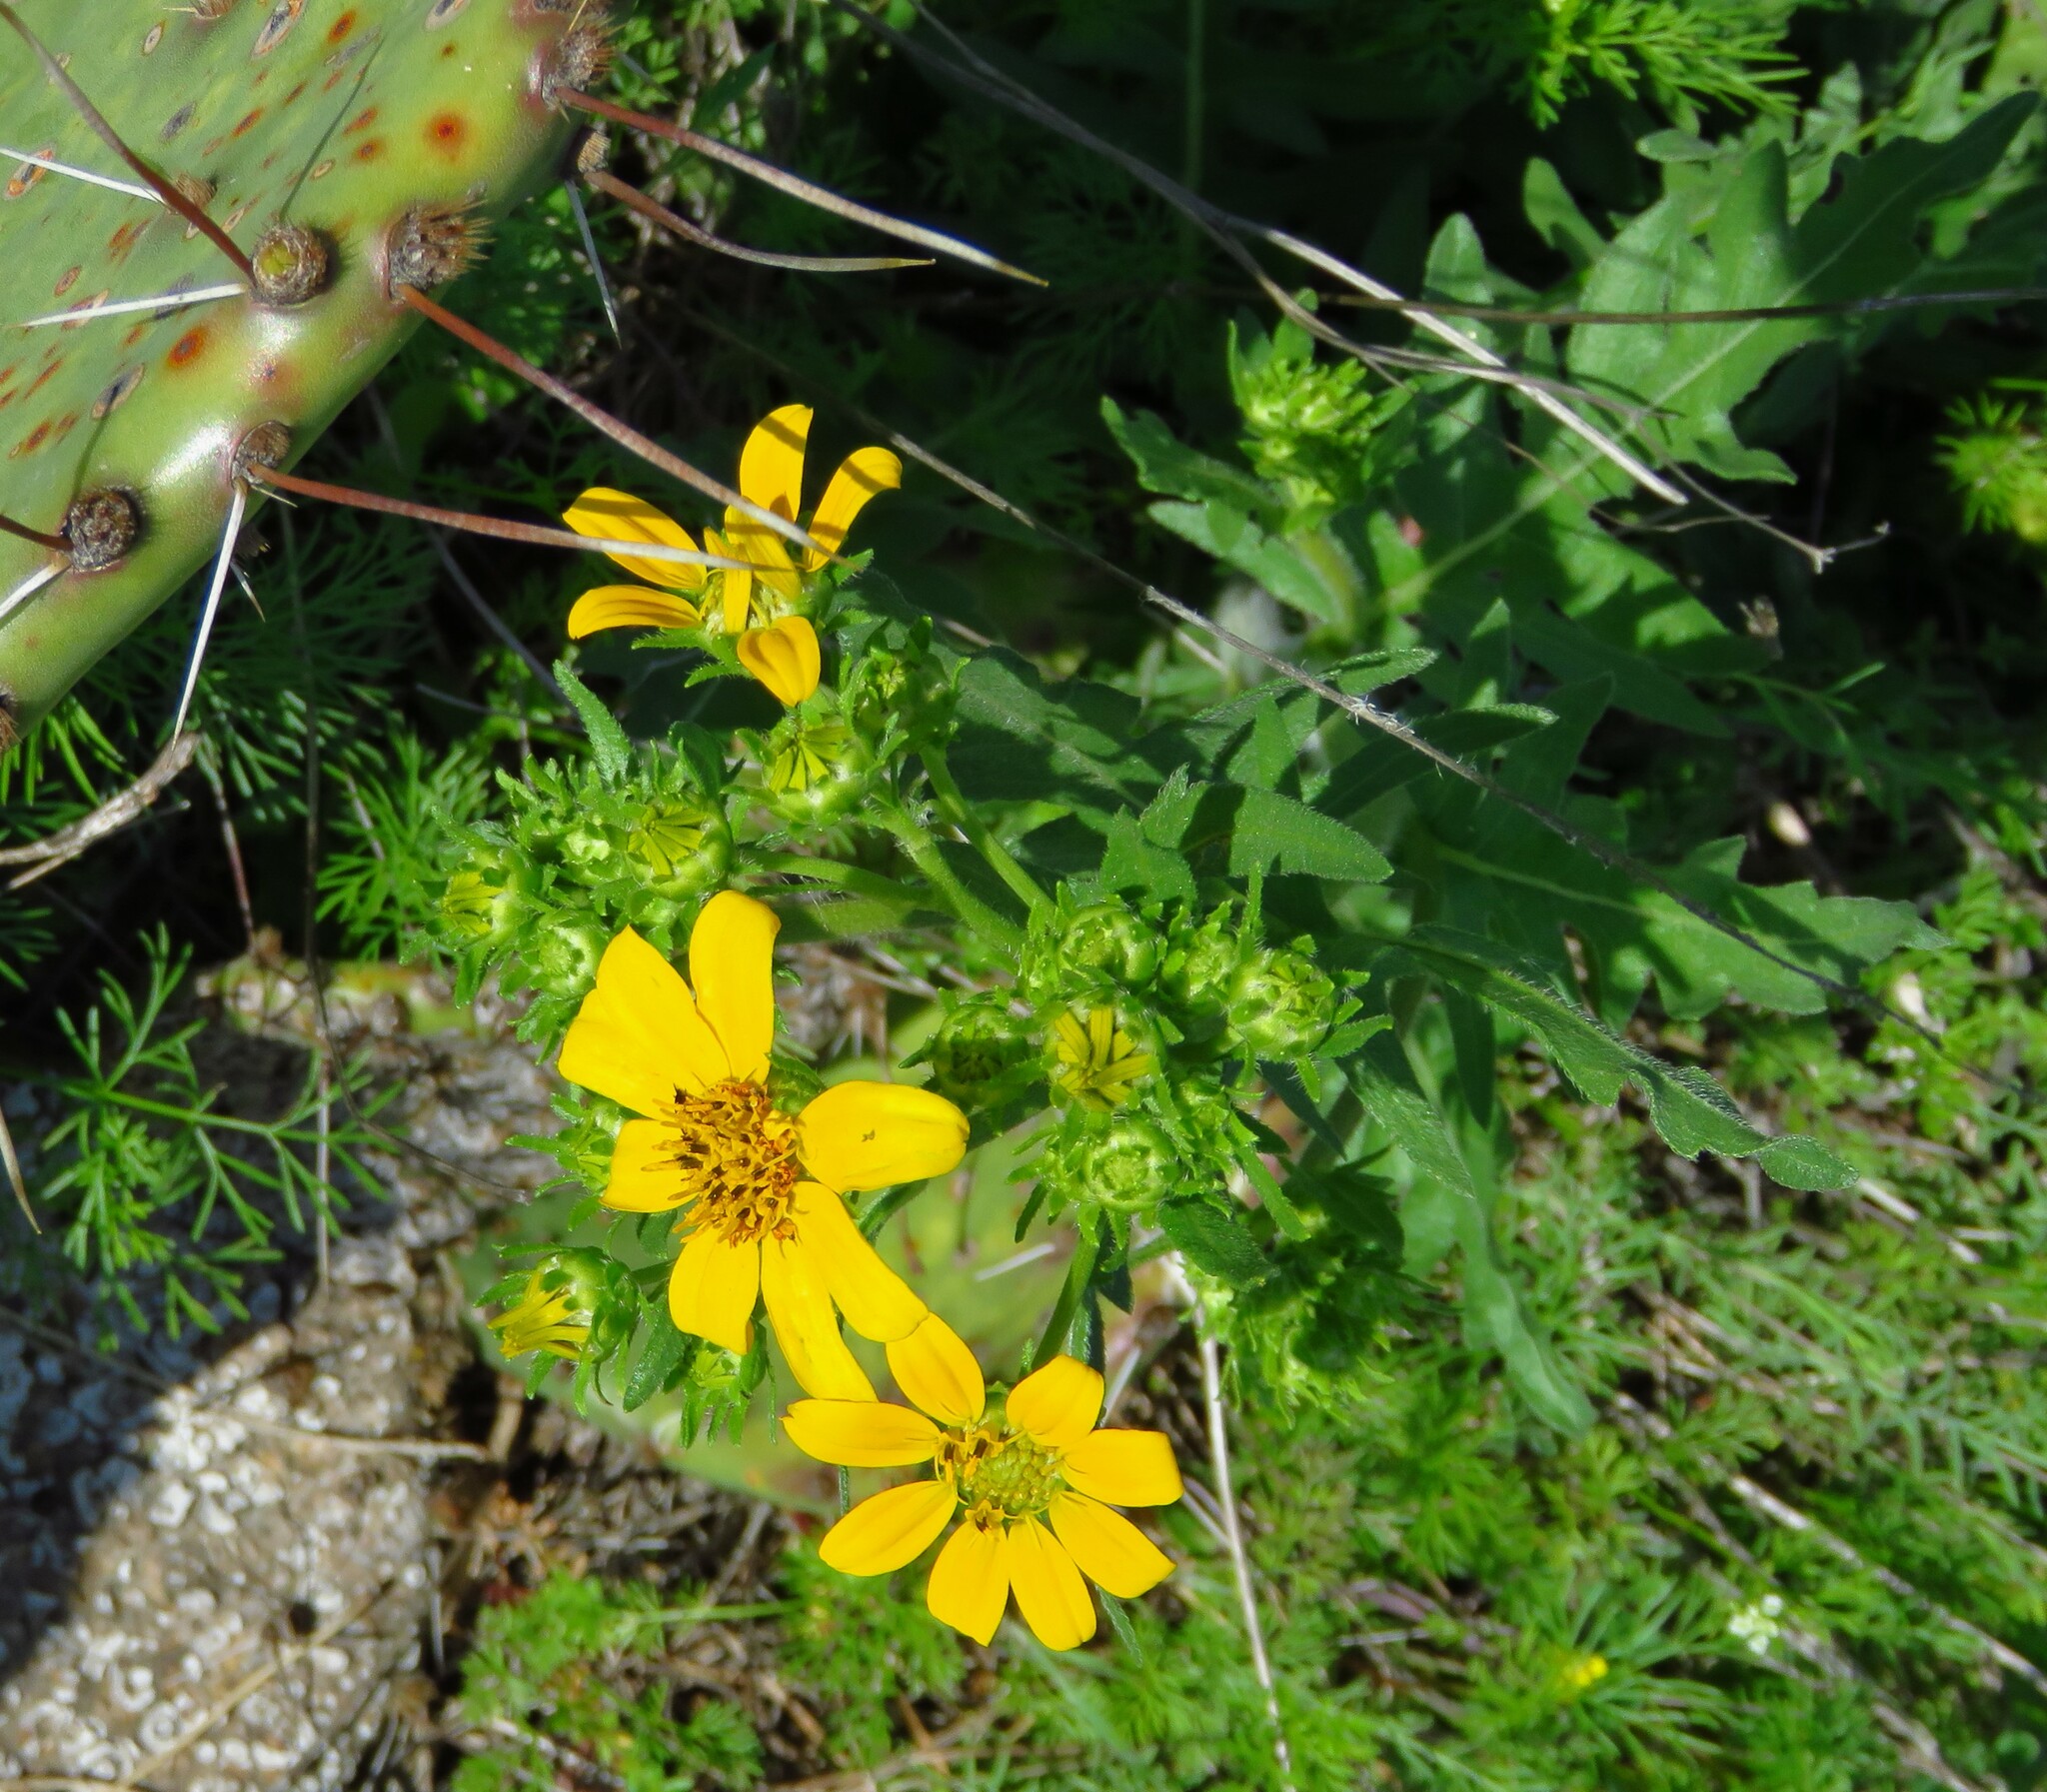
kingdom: Plantae
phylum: Tracheophyta
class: Magnoliopsida
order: Asterales
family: Asteraceae
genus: Engelmannia
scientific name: Engelmannia peristenia
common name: Engelmann's daisy
